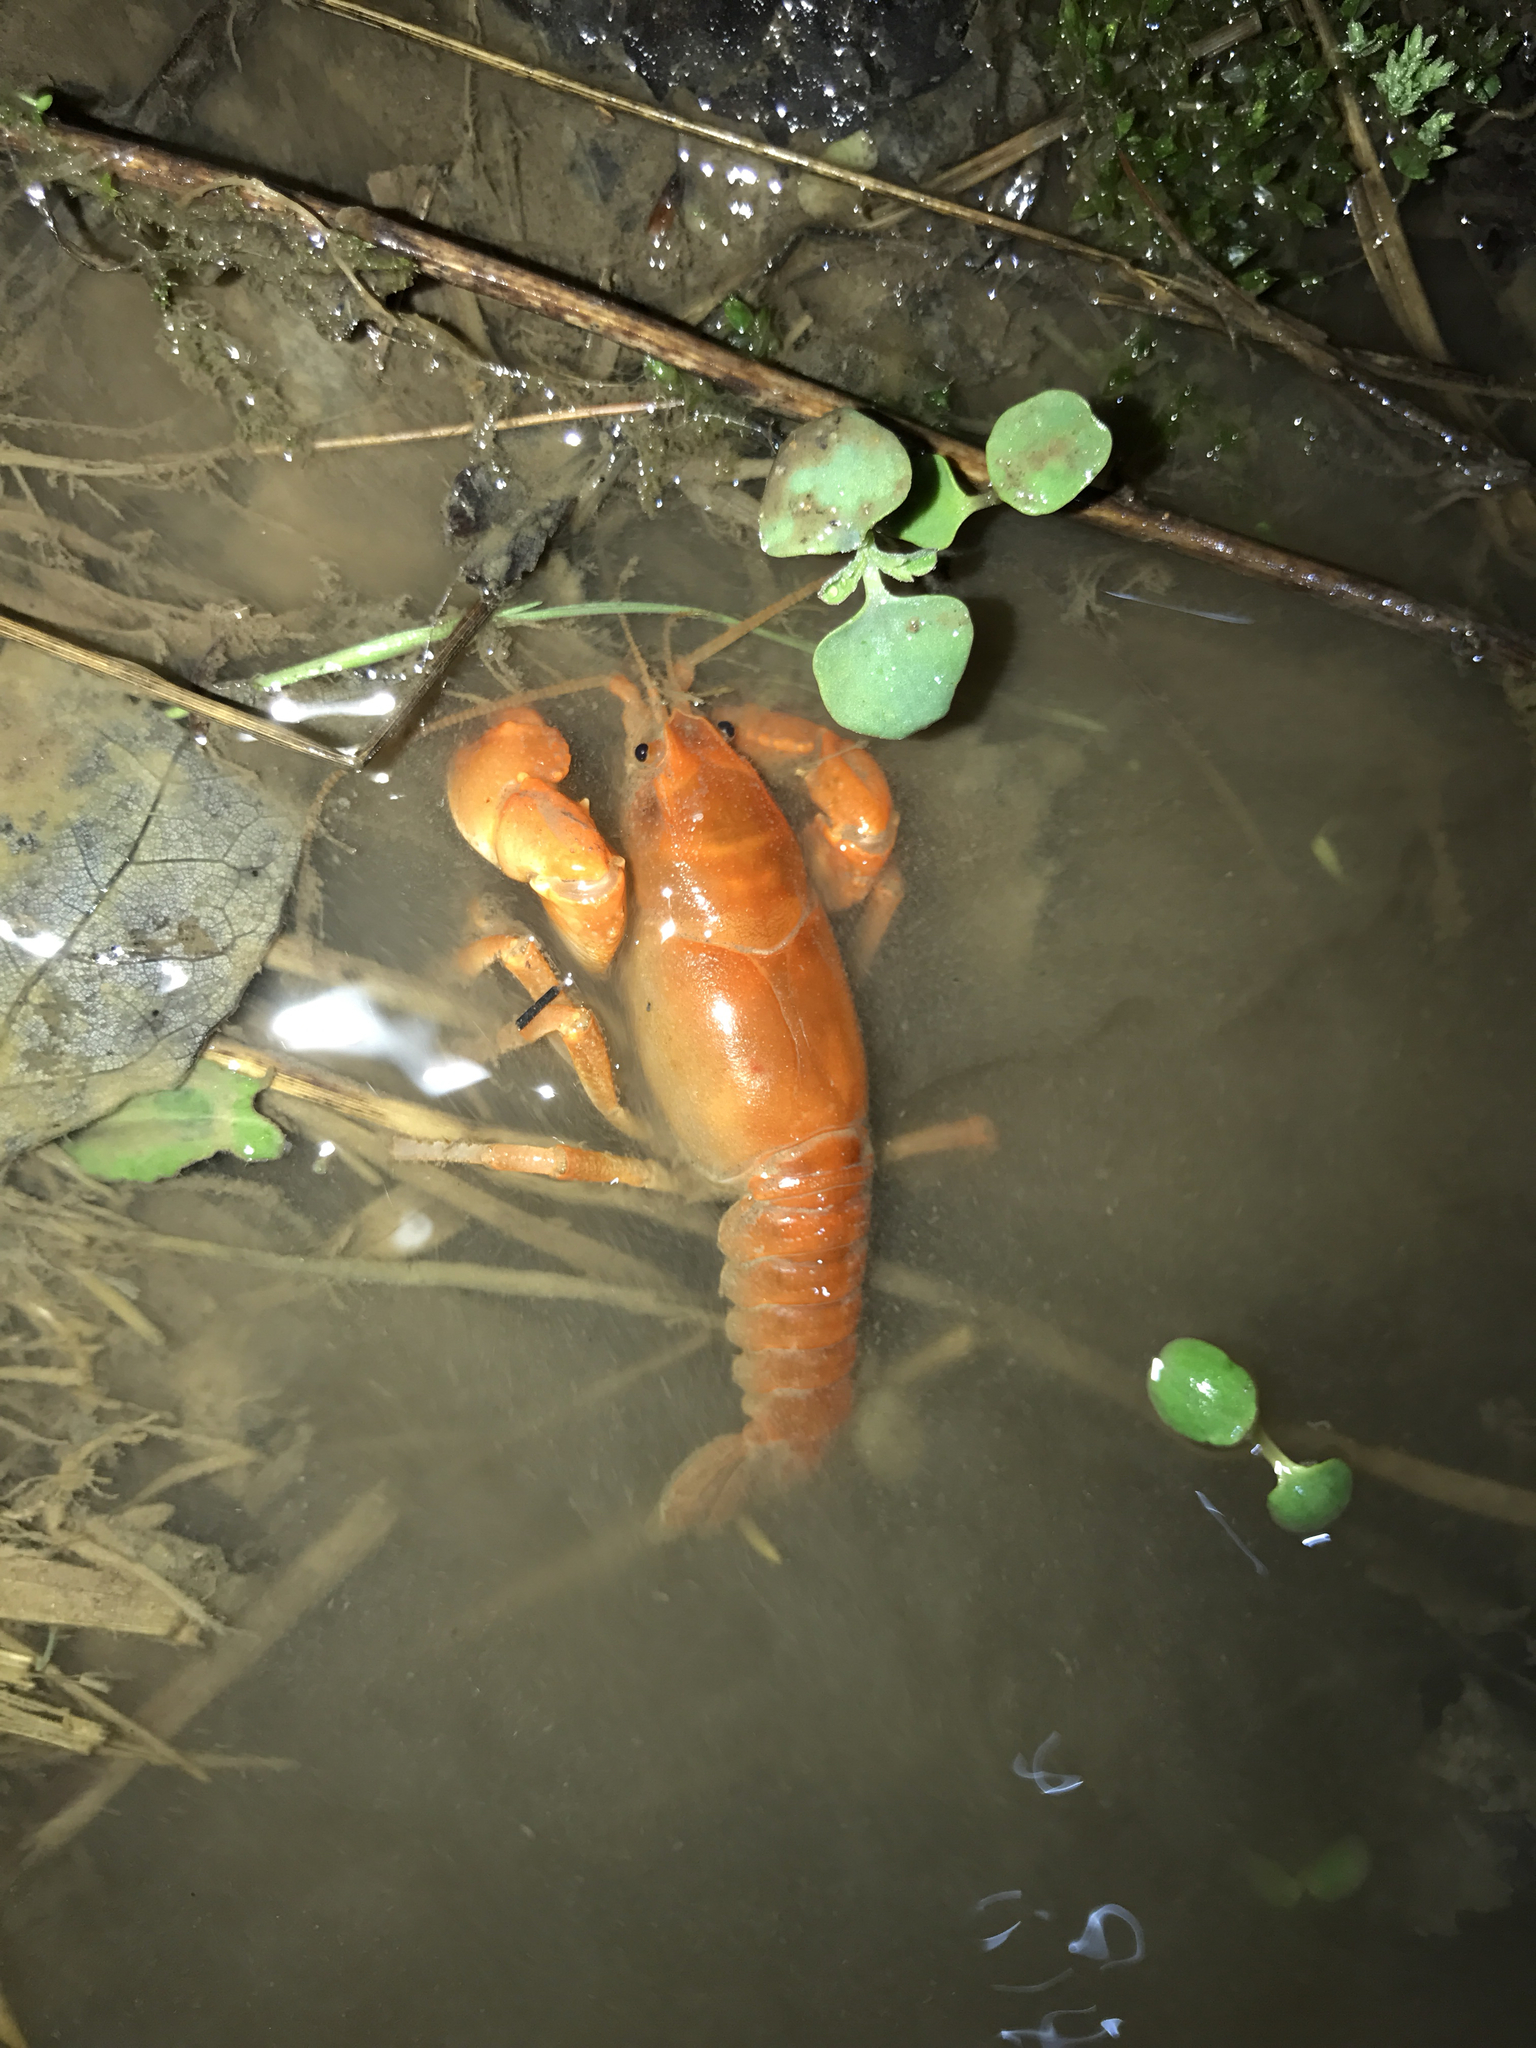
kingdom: Animalia
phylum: Arthropoda
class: Malacostraca
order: Decapoda
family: Cambaridae
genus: Cambarus
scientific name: Cambarus dubius
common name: Upland burrowing crayfish
